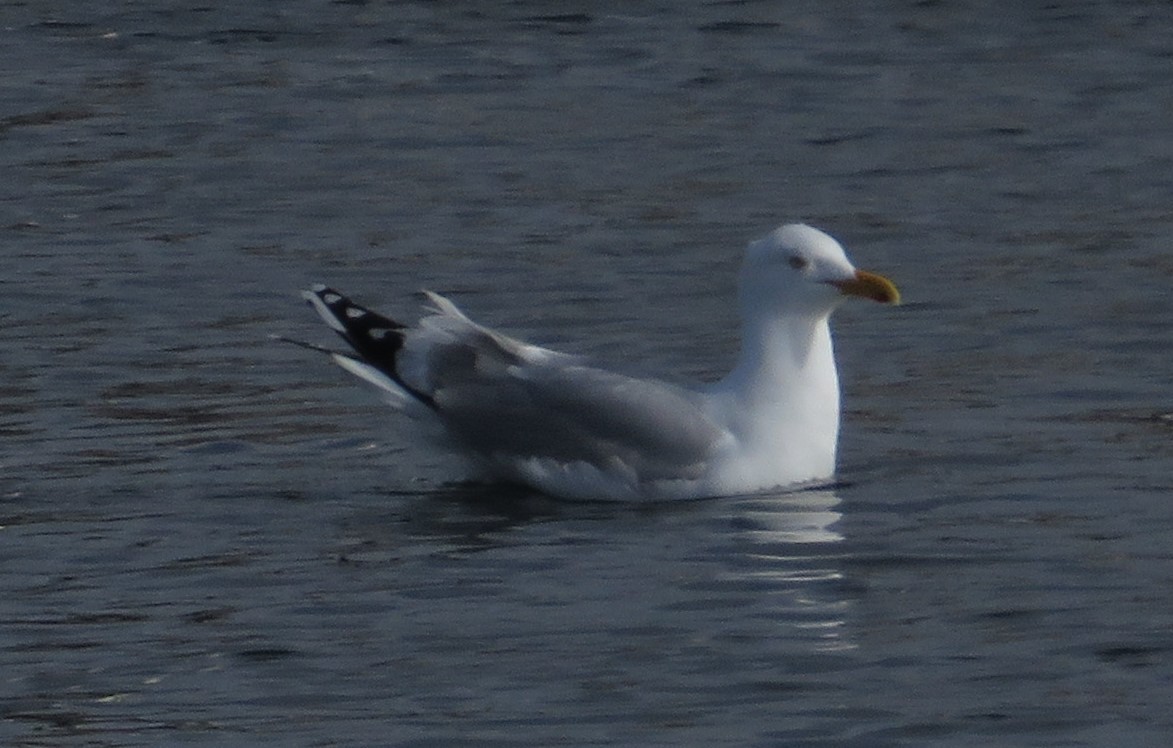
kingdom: Animalia
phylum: Chordata
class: Aves
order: Charadriiformes
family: Laridae
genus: Larus
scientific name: Larus argentatus
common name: Herring gull
